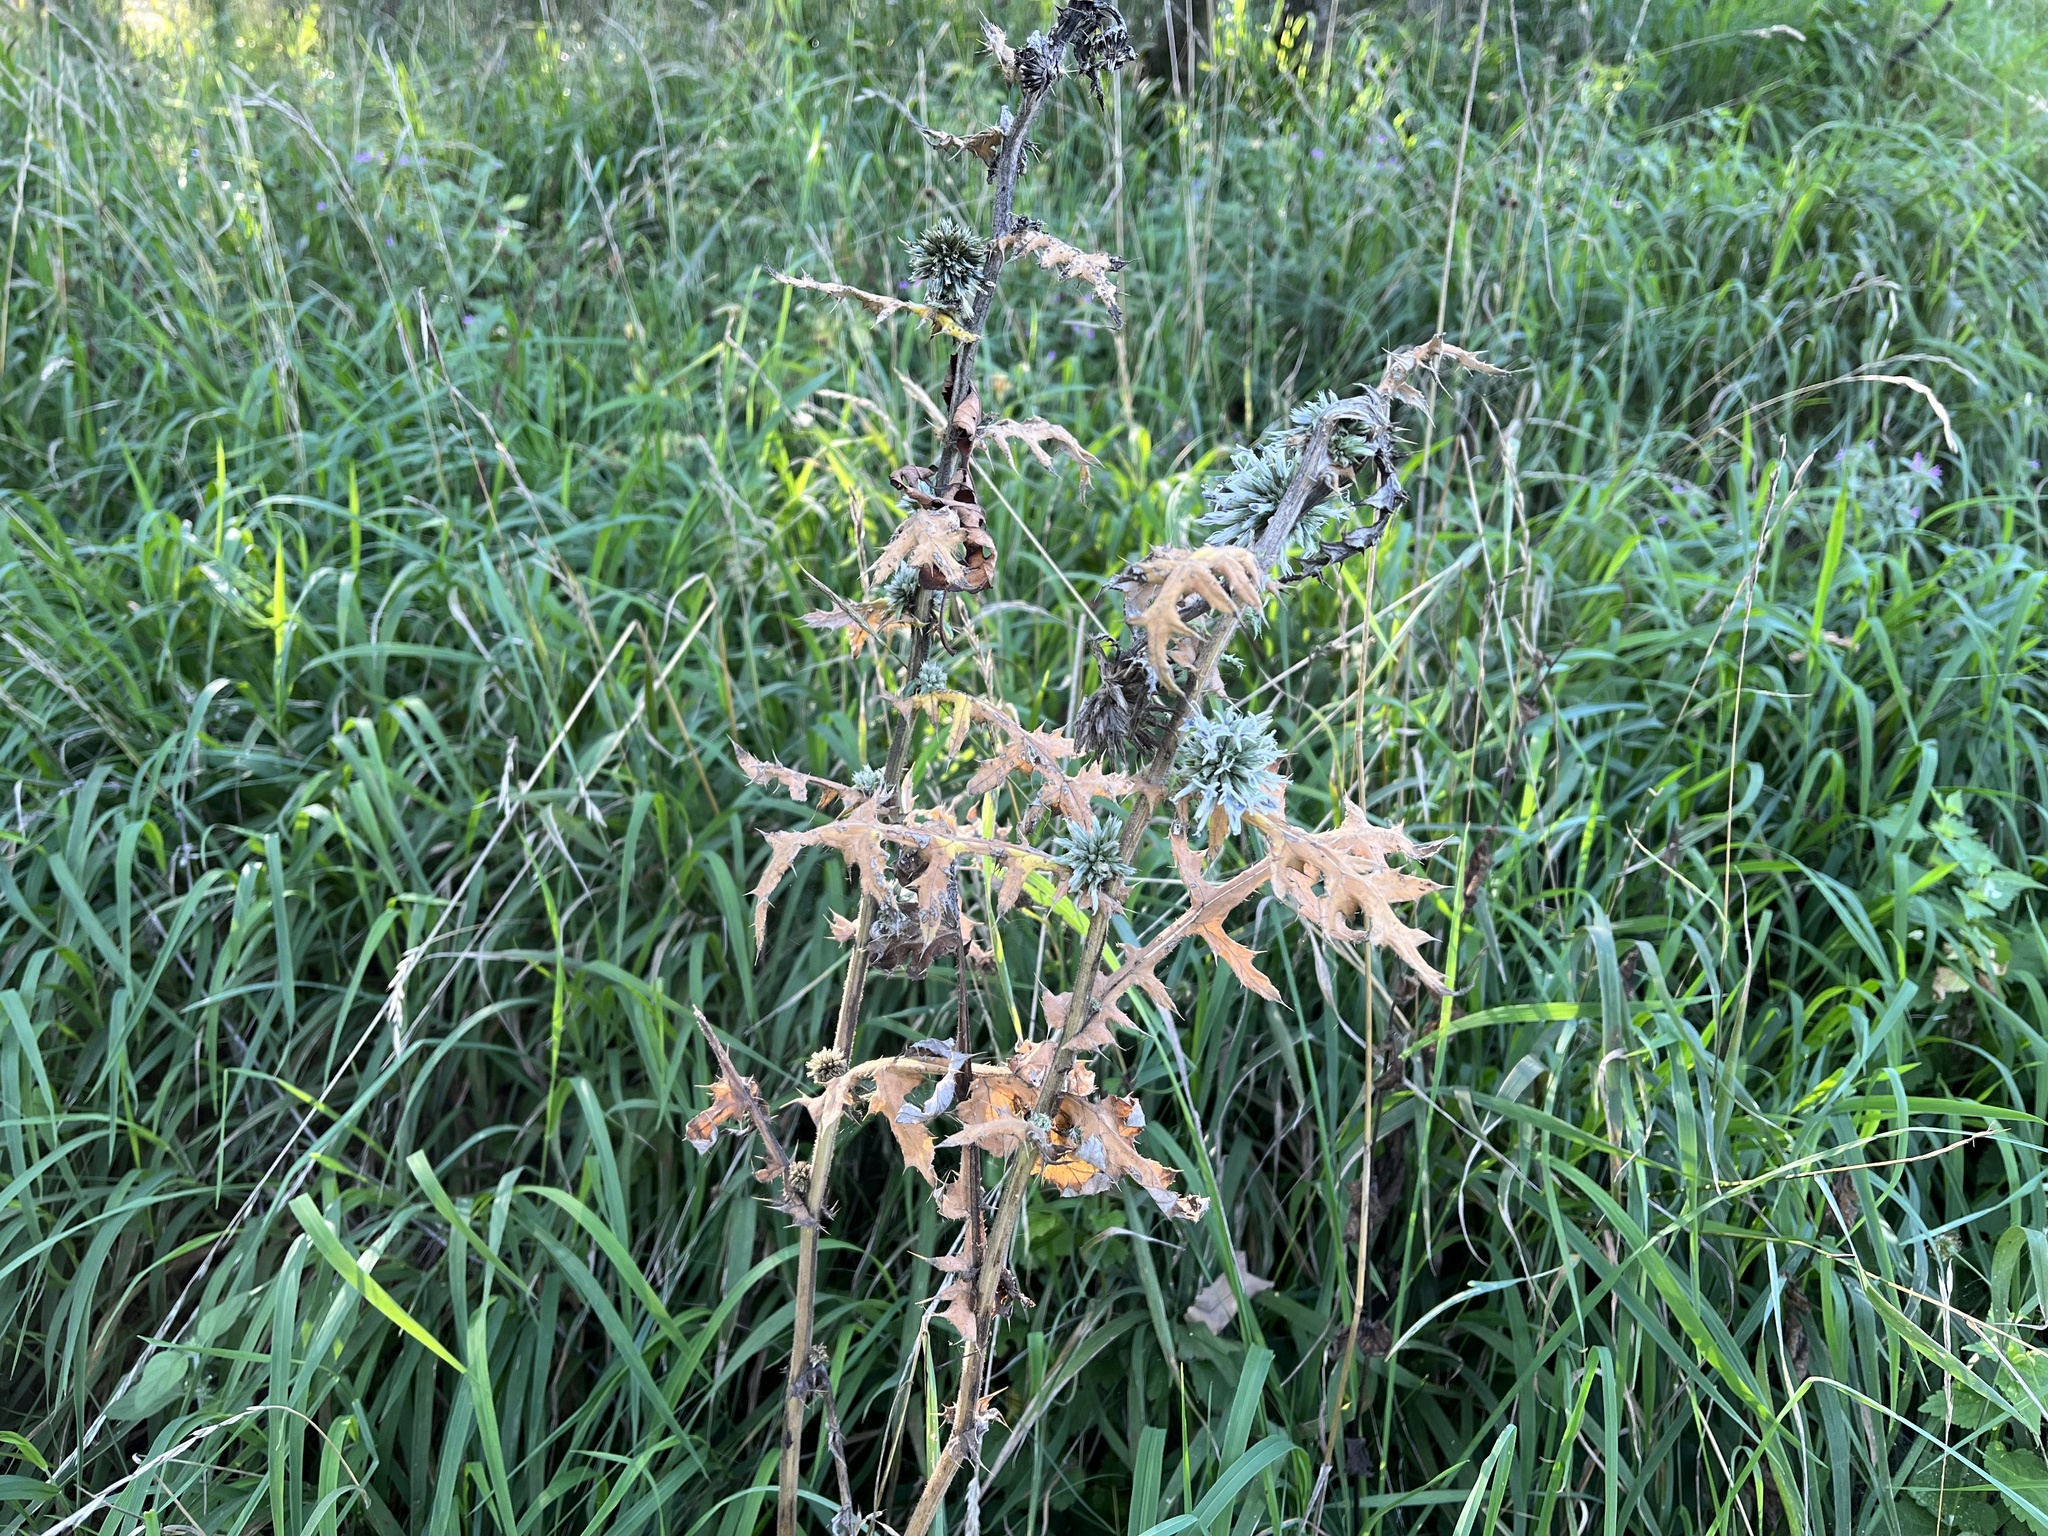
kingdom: Plantae
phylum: Tracheophyta
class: Magnoliopsida
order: Asterales
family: Asteraceae
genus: Echinops
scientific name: Echinops sphaerocephalus
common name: Glandular globe-thistle
